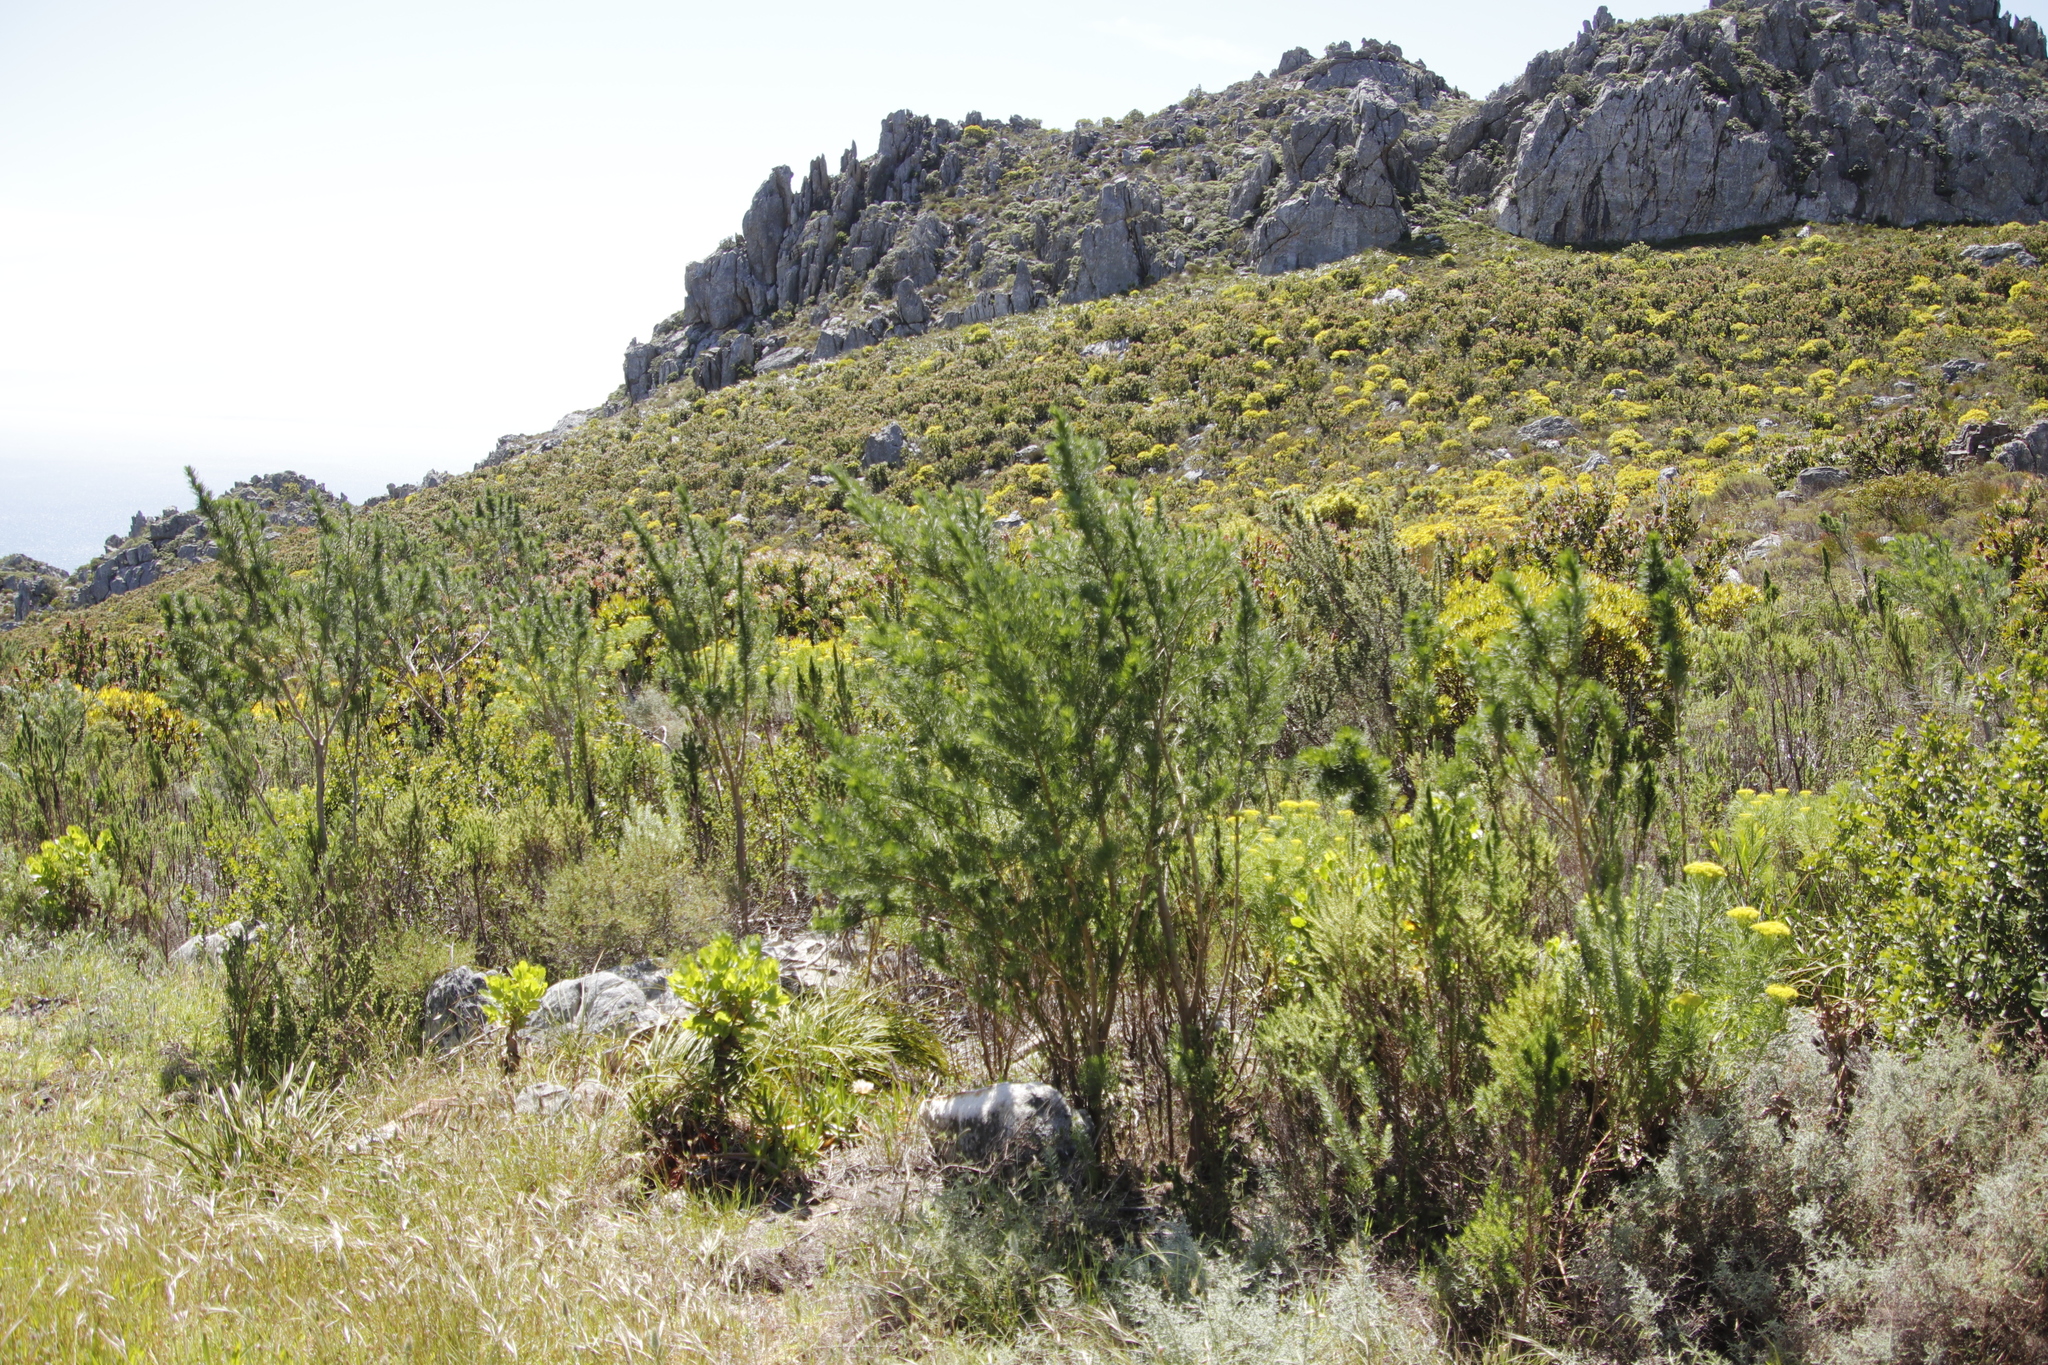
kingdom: Plantae
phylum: Tracheophyta
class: Magnoliopsida
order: Fabales
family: Fabaceae
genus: Psoralea
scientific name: Psoralea pinnata
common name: African scurfpea
